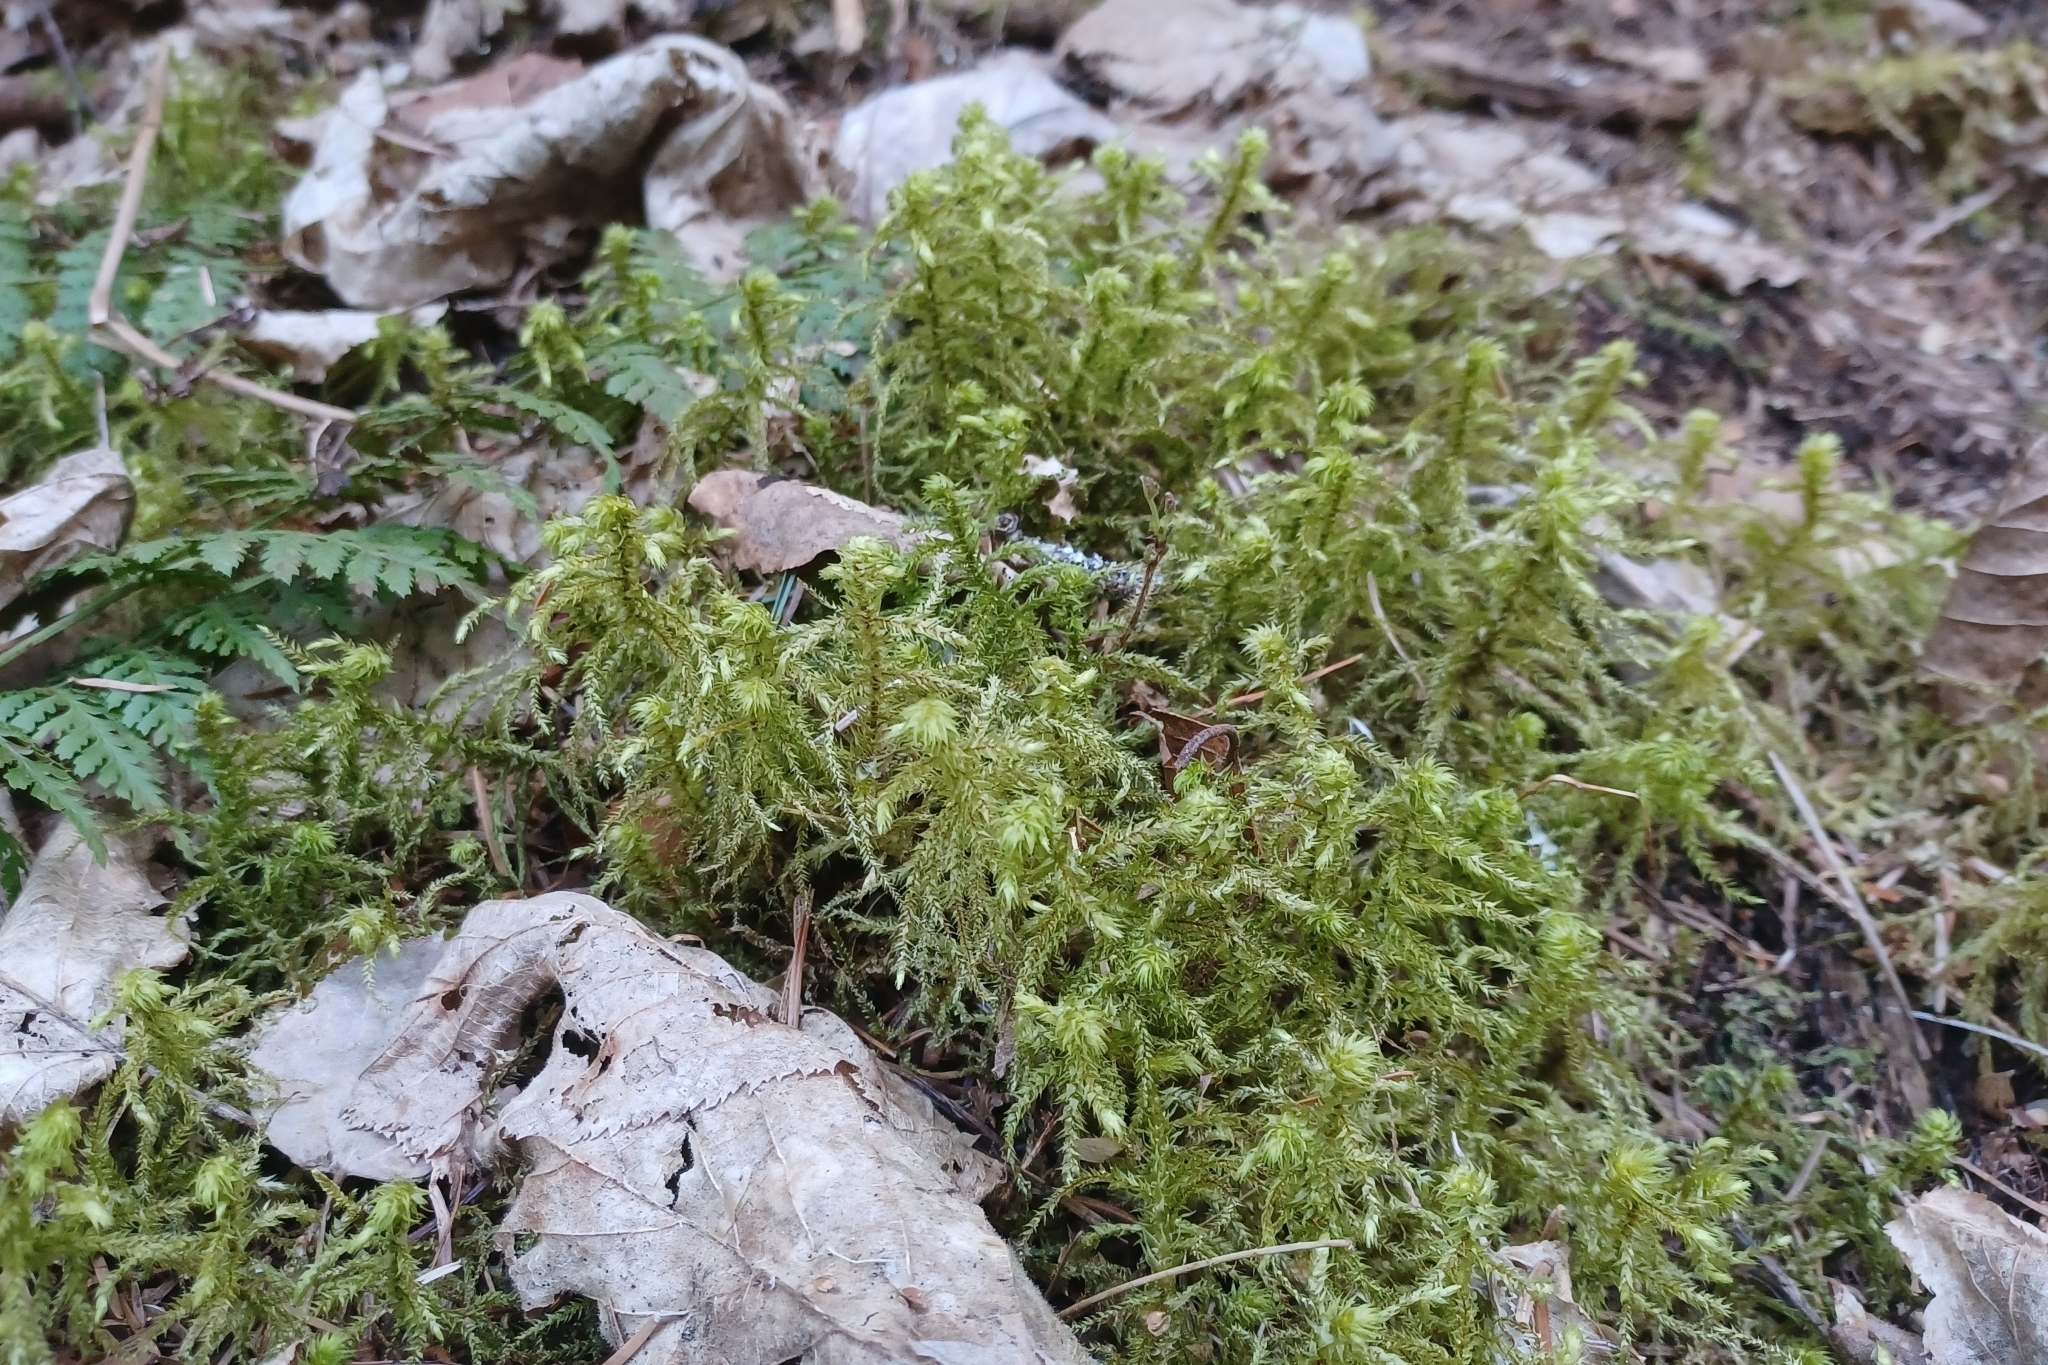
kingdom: Plantae
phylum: Bryophyta
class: Bryopsida
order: Hypnales
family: Hylocomiaceae
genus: Hylocomiadelphus
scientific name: Hylocomiadelphus triquetrus
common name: Rough goose neck moss
